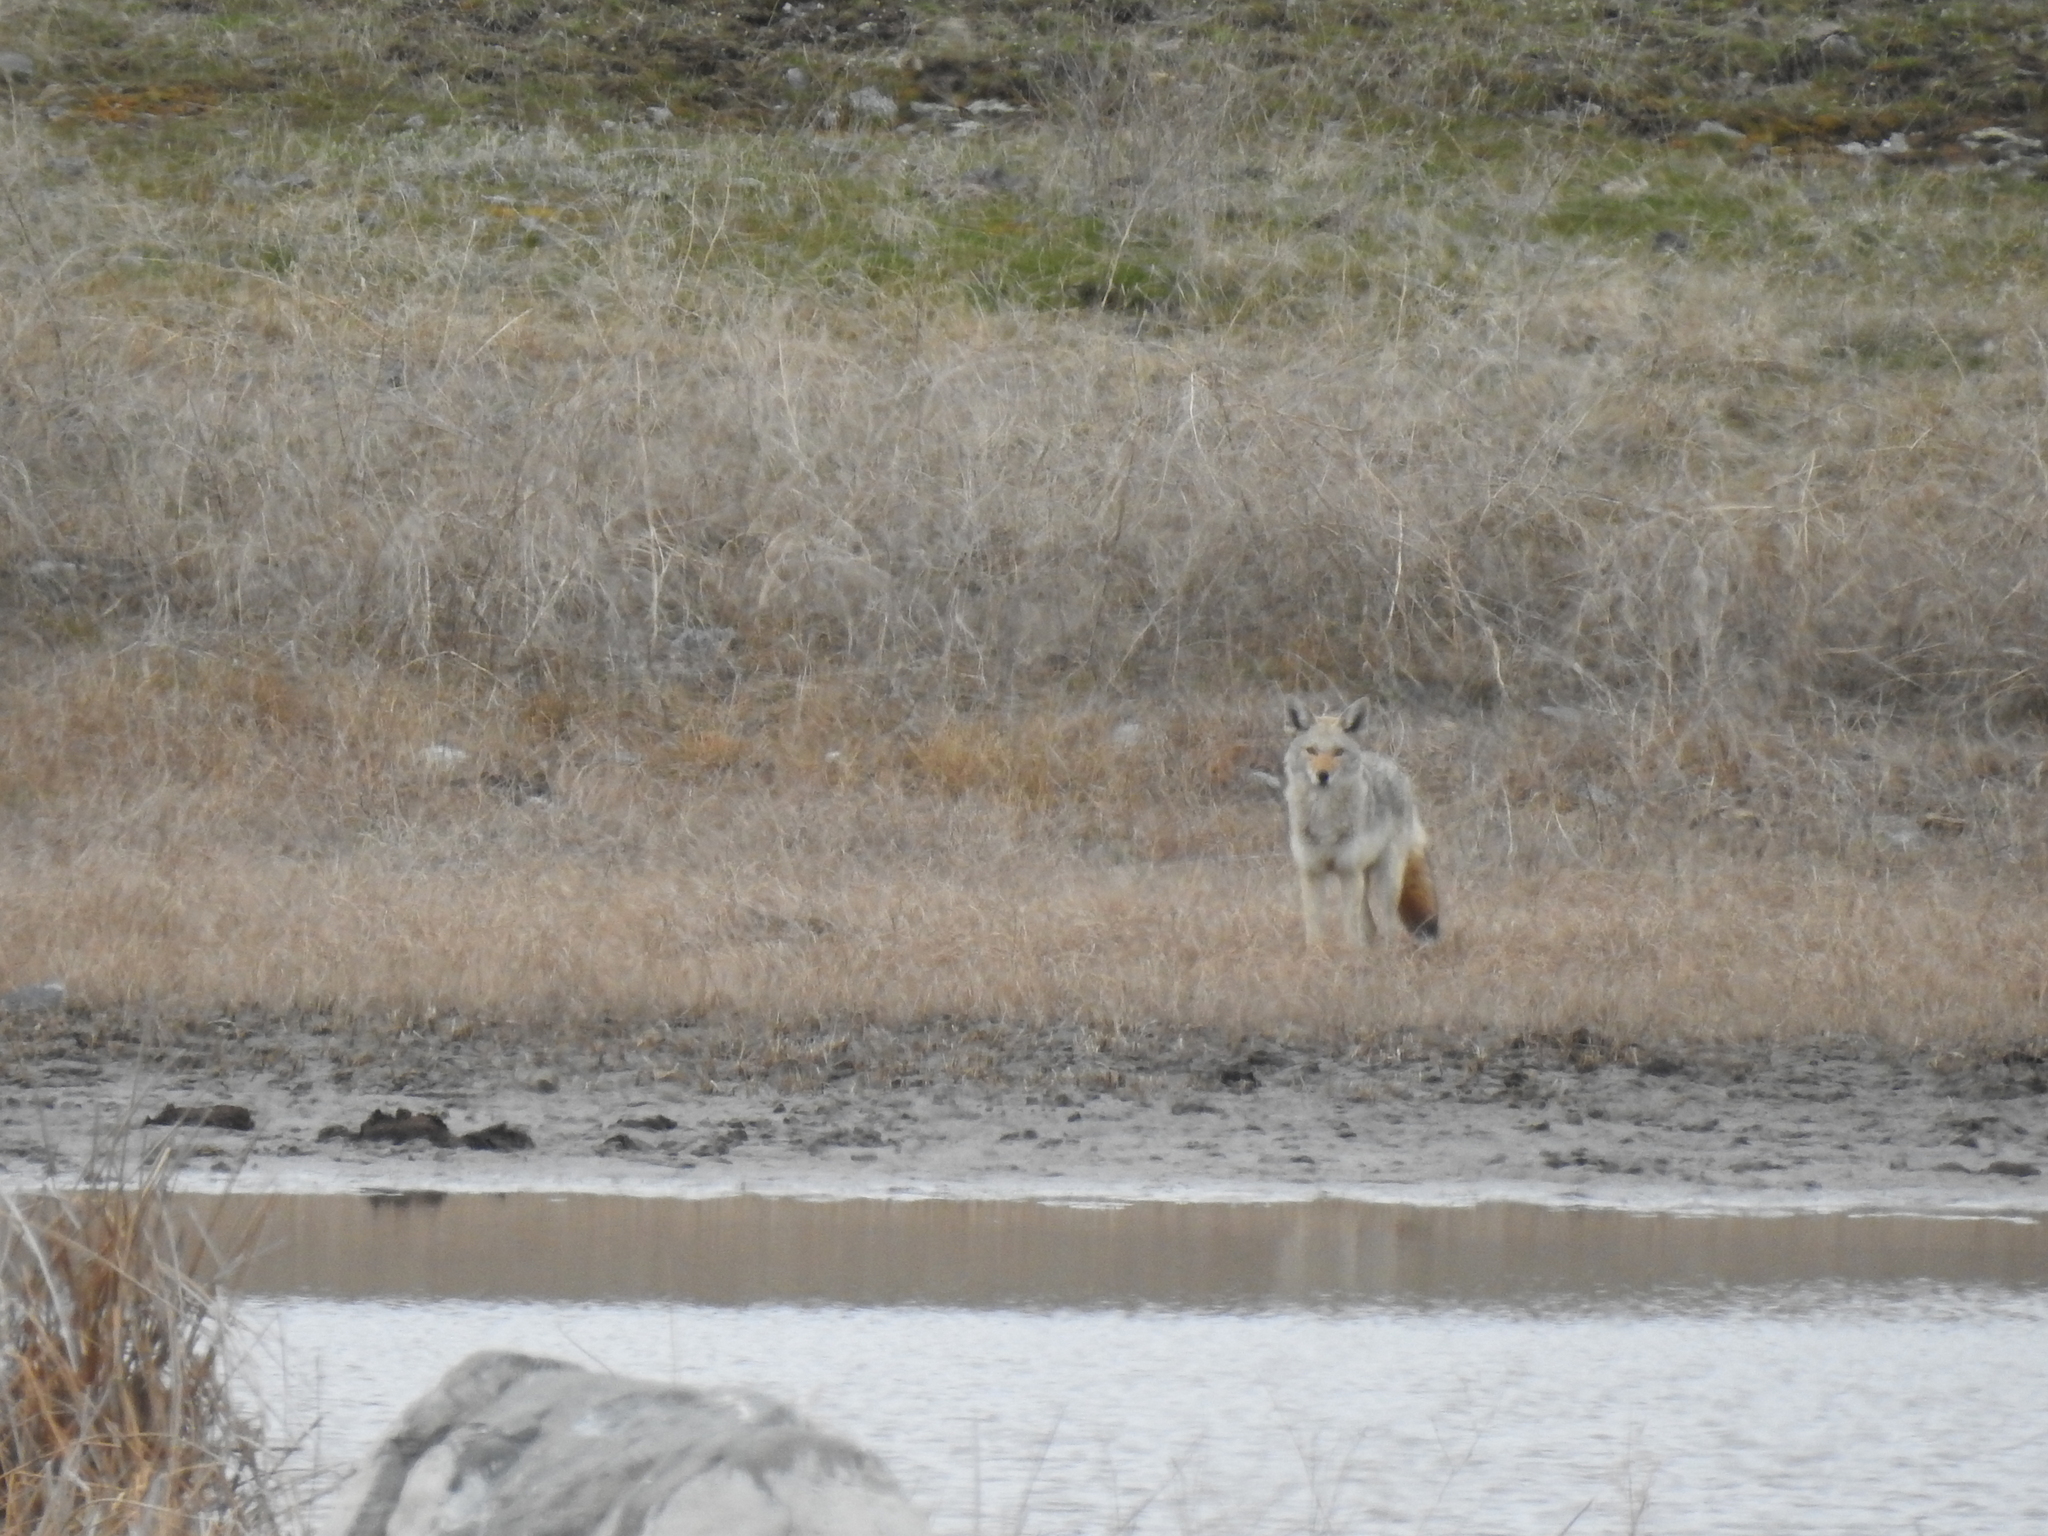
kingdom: Animalia
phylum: Chordata
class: Mammalia
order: Carnivora
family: Canidae
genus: Canis
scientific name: Canis latrans
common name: Coyote
